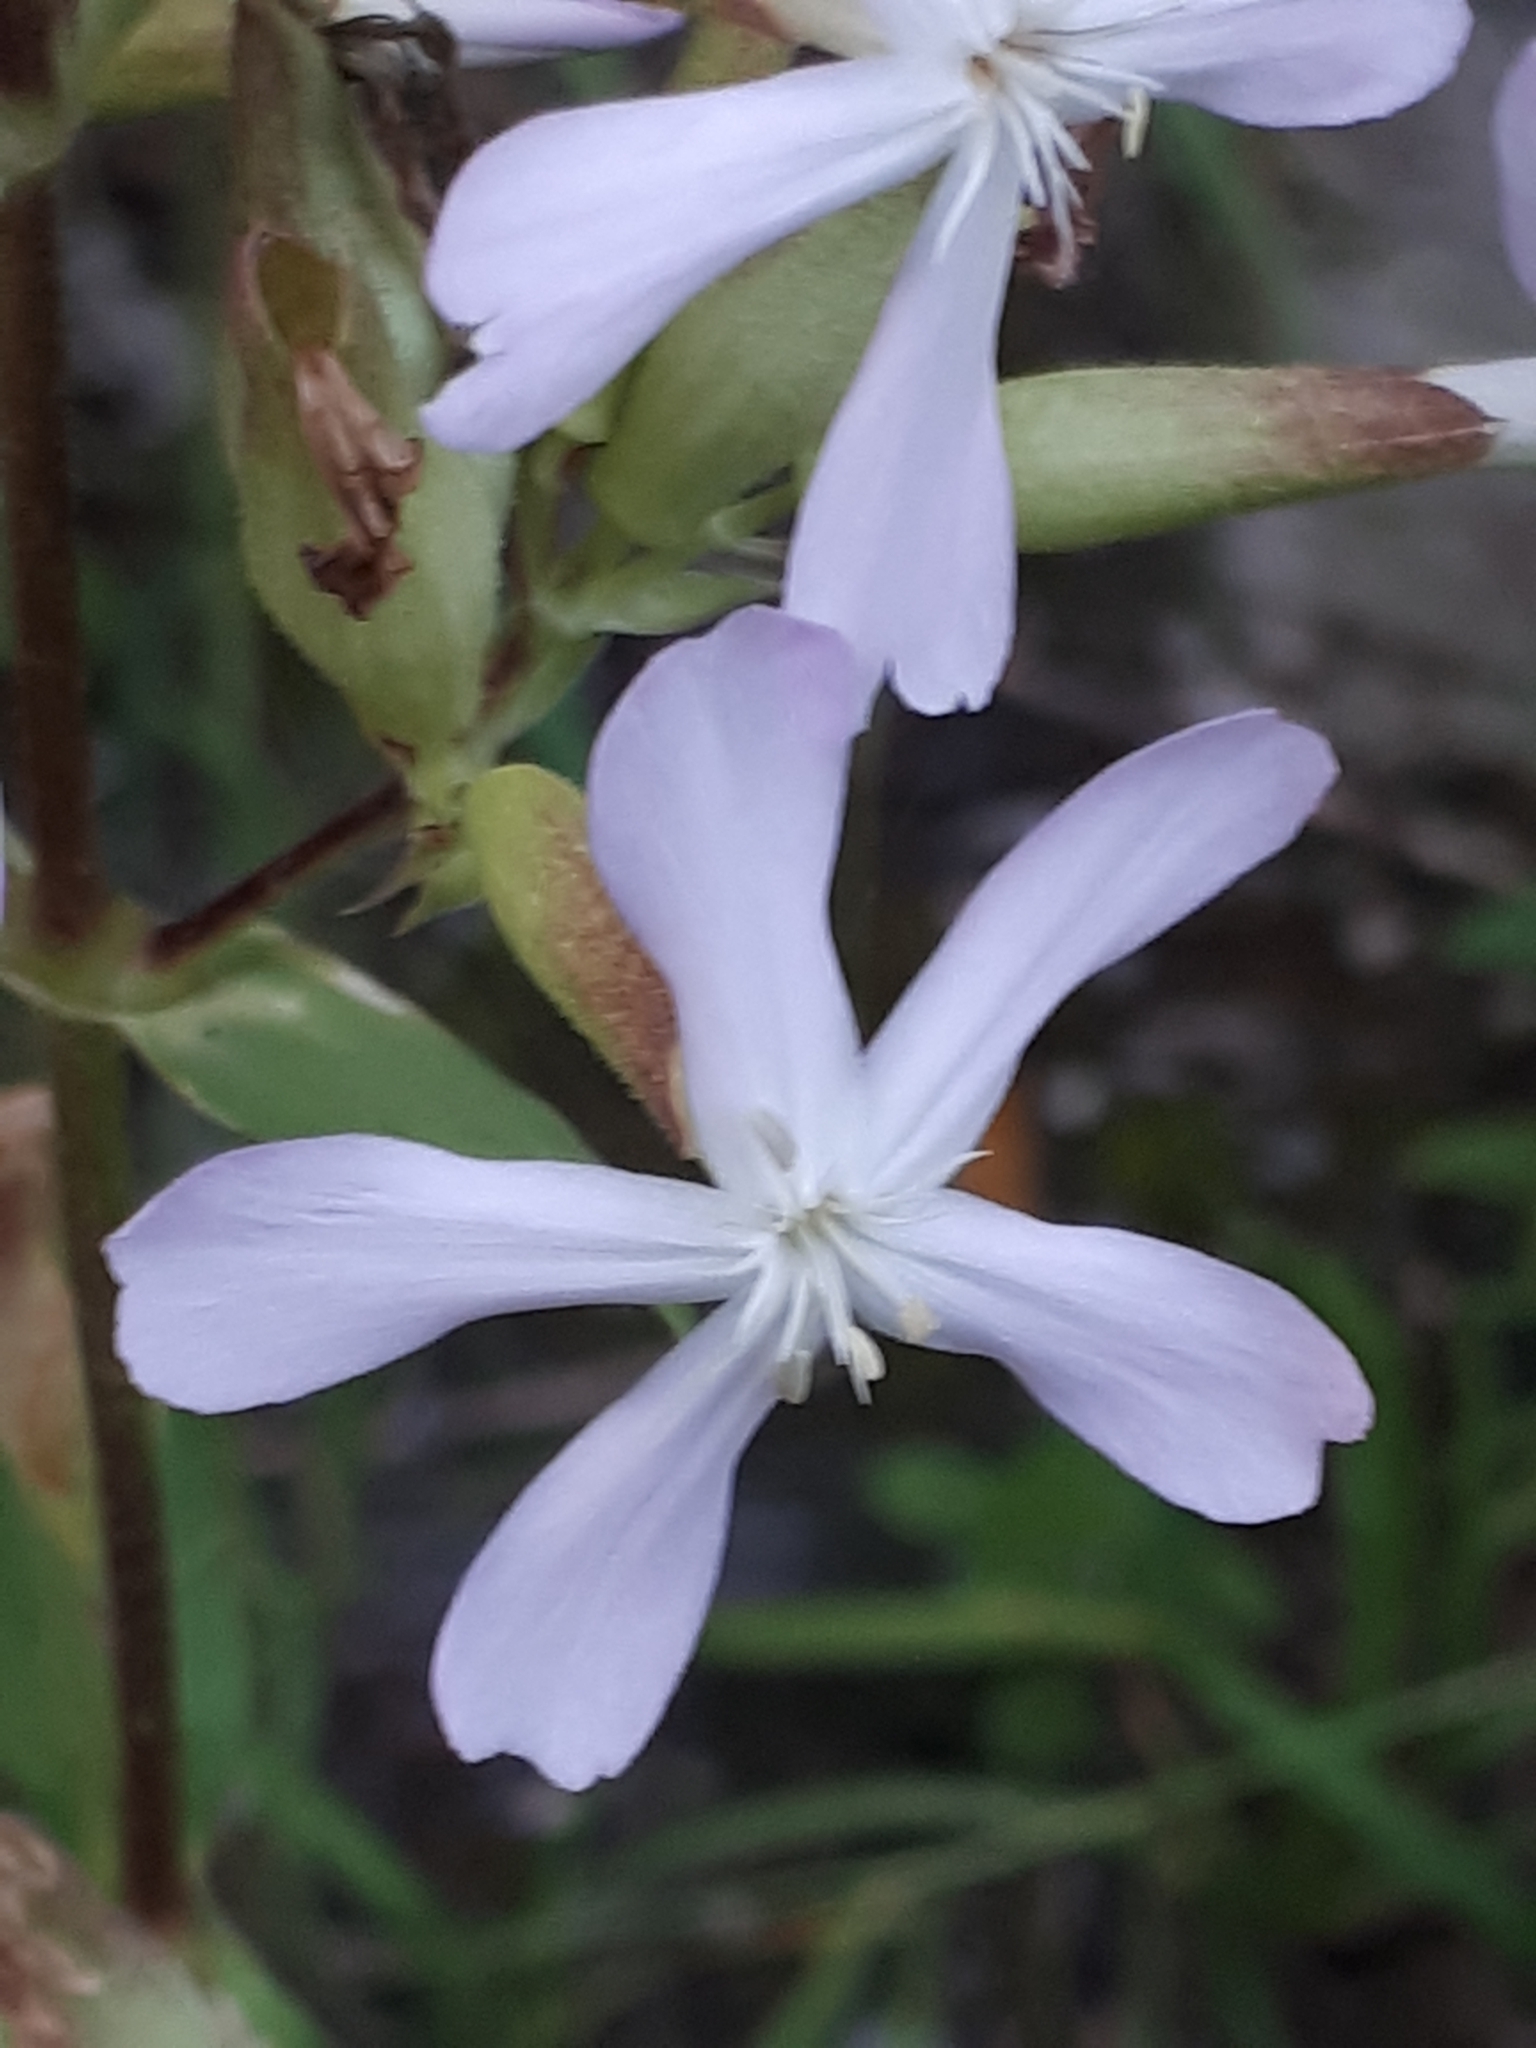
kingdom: Plantae
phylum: Tracheophyta
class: Magnoliopsida
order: Caryophyllales
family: Caryophyllaceae
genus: Saponaria
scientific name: Saponaria officinalis
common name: Soapwort
